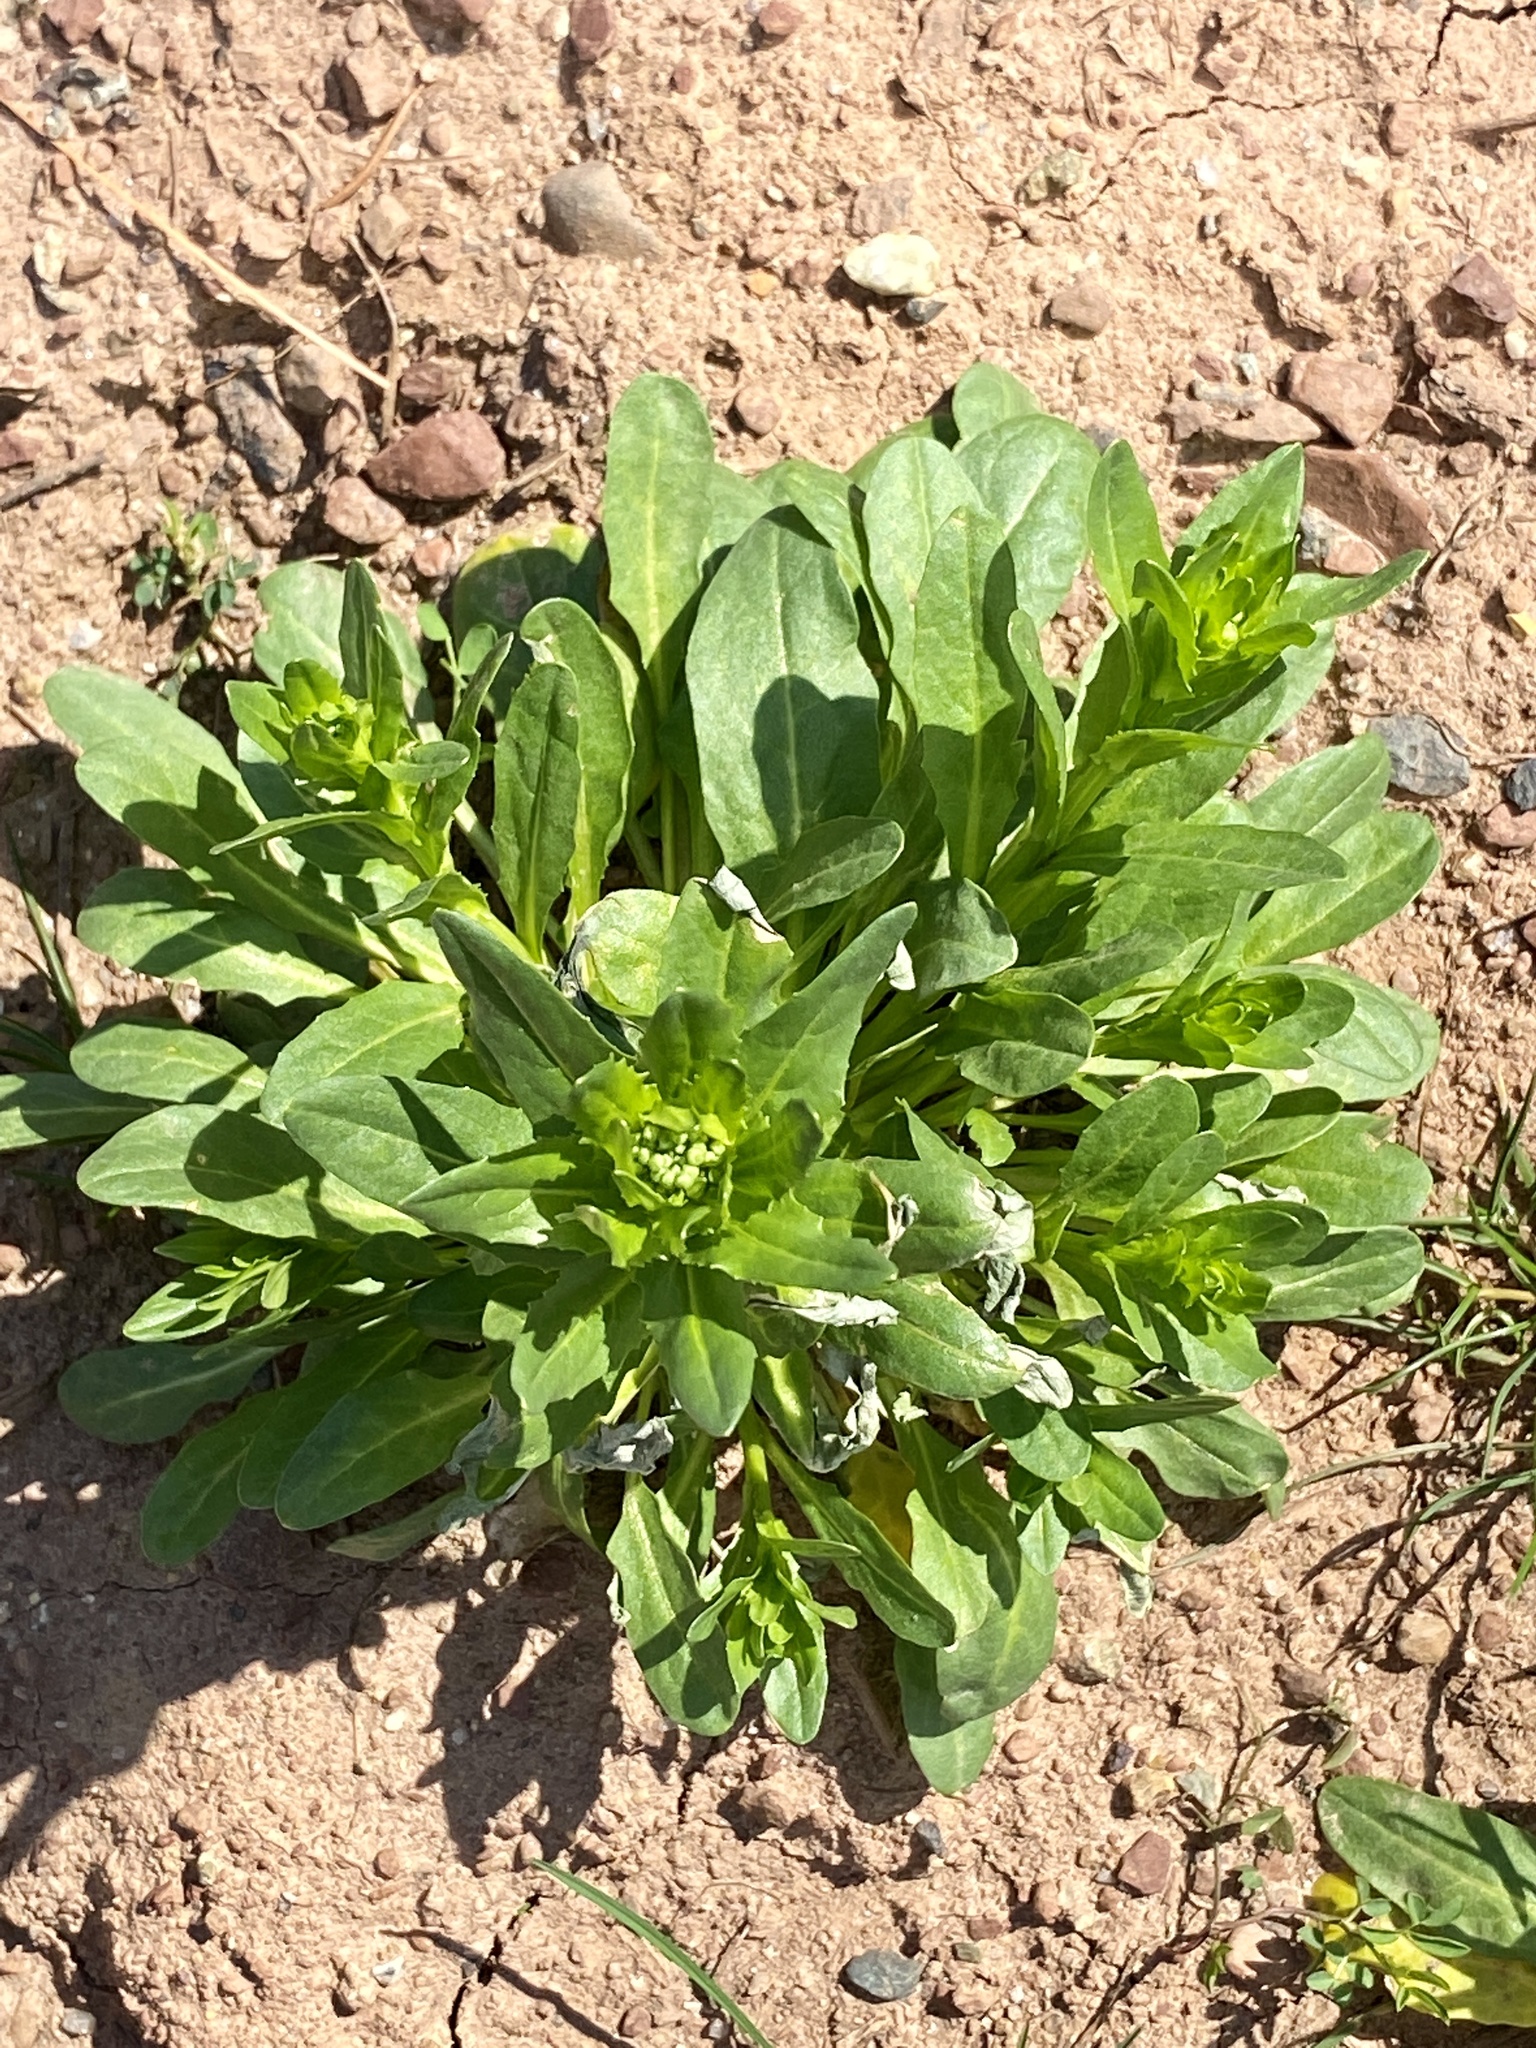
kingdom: Plantae
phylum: Tracheophyta
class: Magnoliopsida
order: Brassicales
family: Brassicaceae
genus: Thlaspi
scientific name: Thlaspi arvense
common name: Field pennycress
